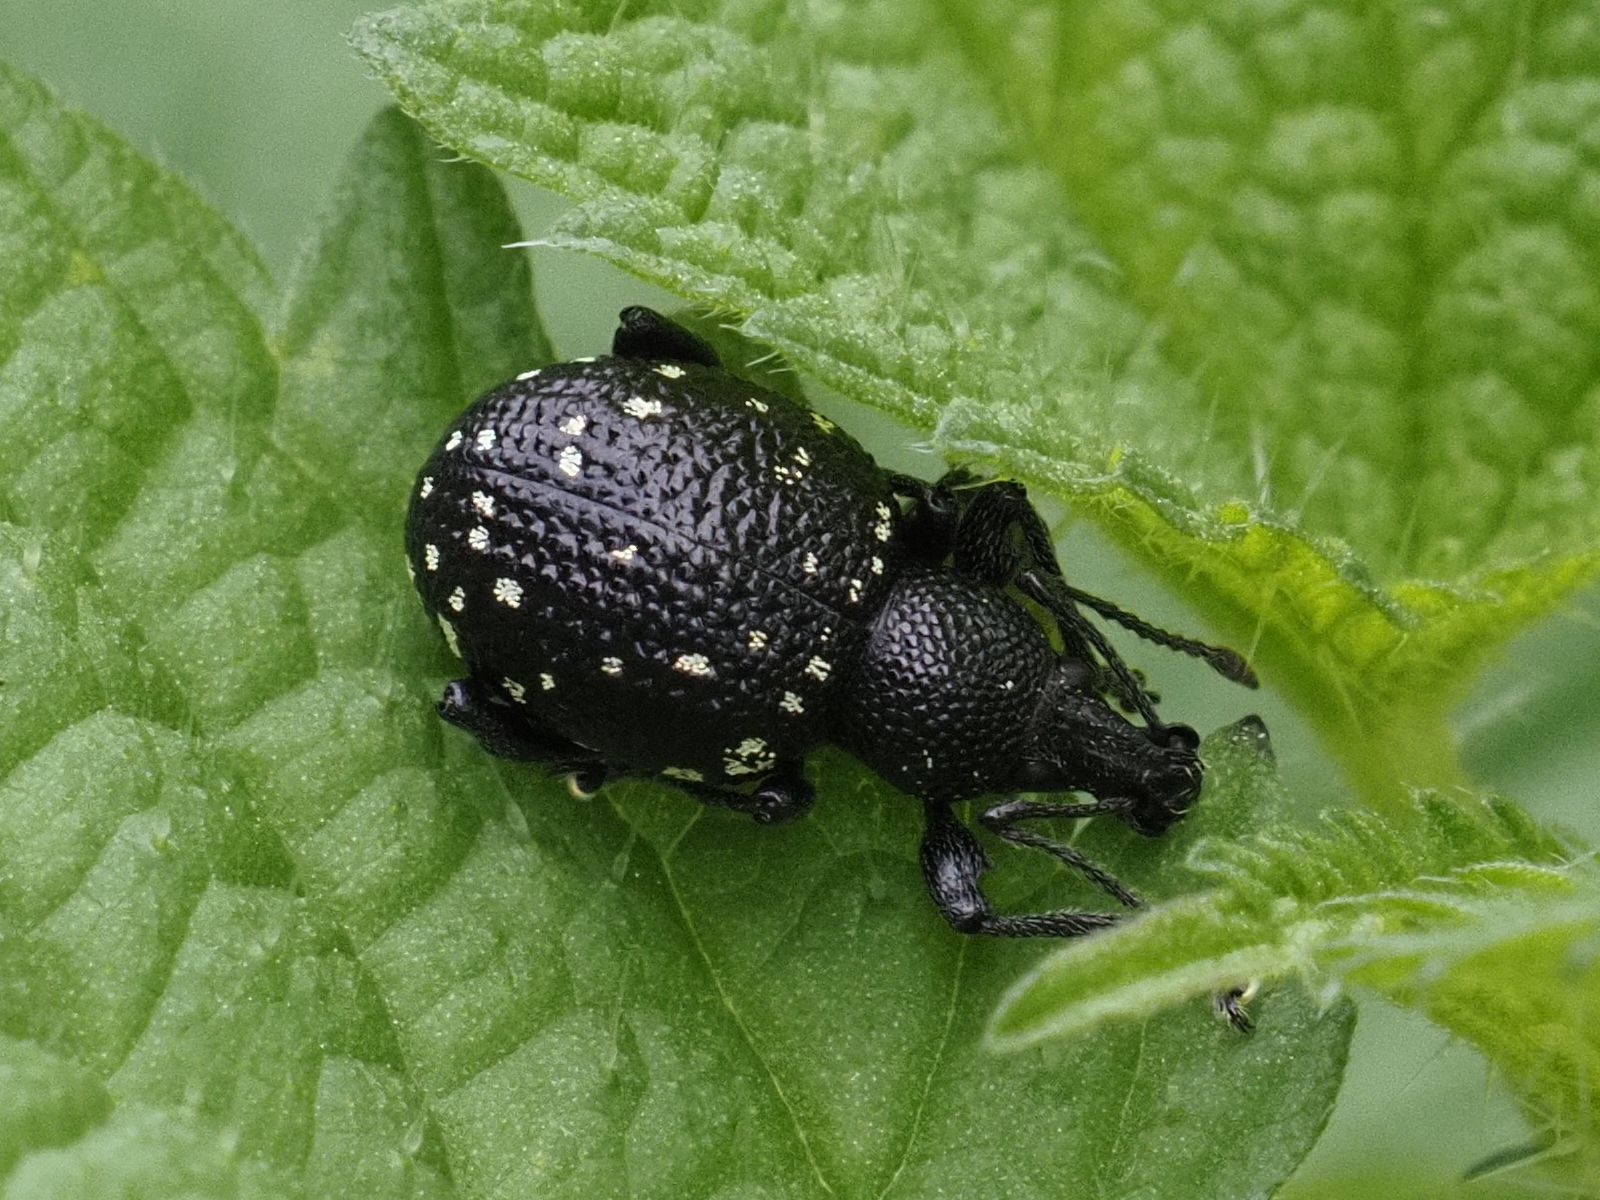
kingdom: Animalia
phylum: Arthropoda
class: Insecta
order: Coleoptera
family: Curculionidae
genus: Otiorhynchus
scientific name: Otiorhynchus gemmatus
